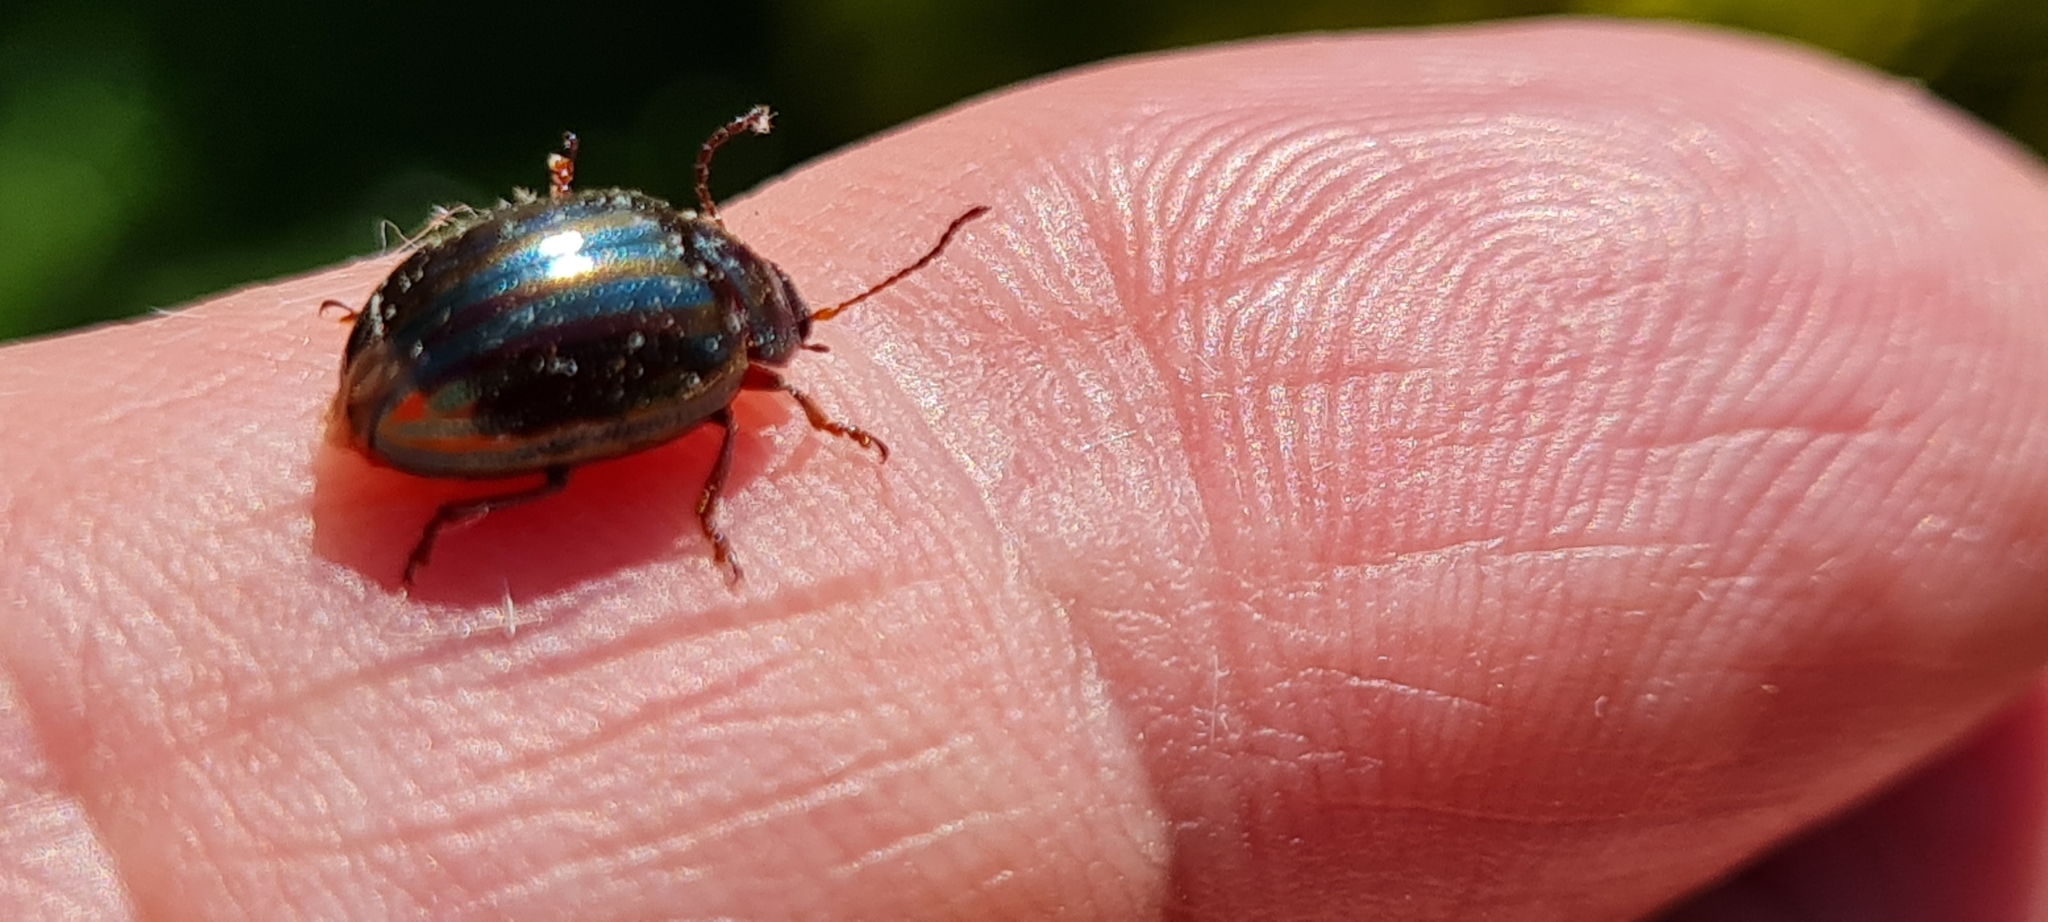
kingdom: Animalia
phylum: Arthropoda
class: Insecta
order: Coleoptera
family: Chrysomelidae
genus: Chrysolina
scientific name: Chrysolina americana
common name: Rosemary beetle
